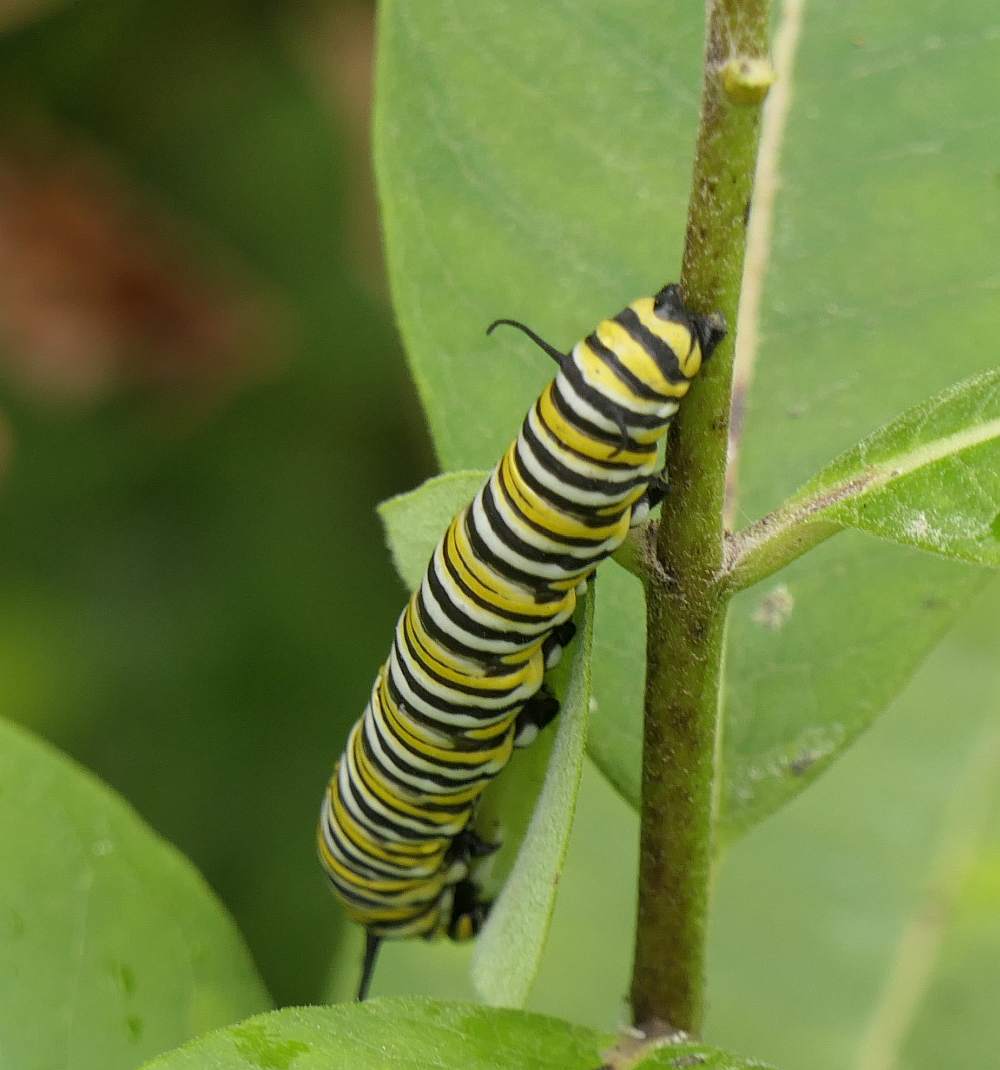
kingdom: Animalia
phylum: Arthropoda
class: Insecta
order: Lepidoptera
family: Nymphalidae
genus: Danaus
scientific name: Danaus plexippus
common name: Monarch
